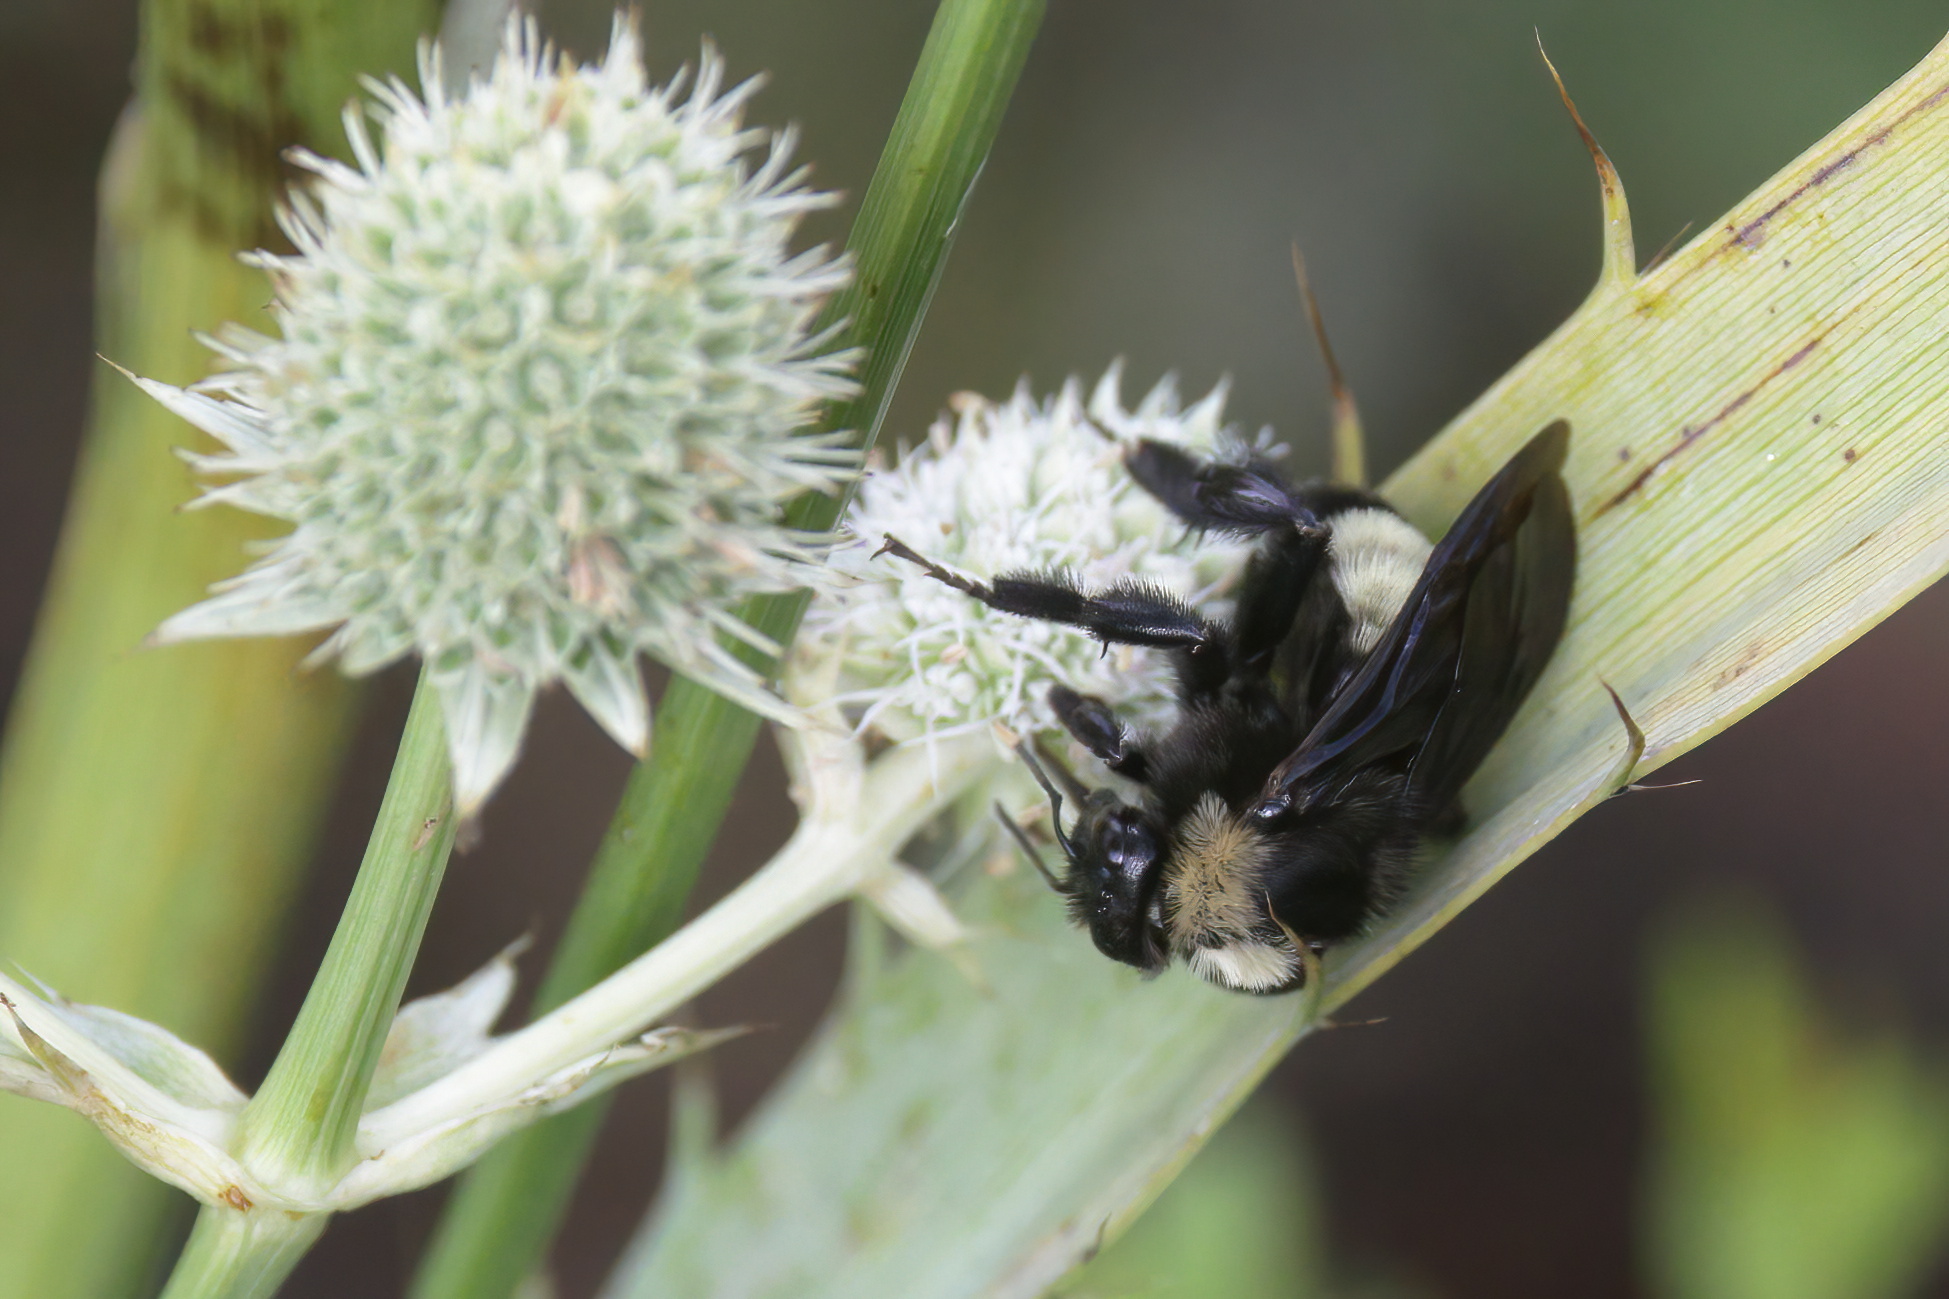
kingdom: Animalia
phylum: Arthropoda
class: Insecta
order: Hymenoptera
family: Apidae
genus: Bombus
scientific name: Bombus pensylvanicus
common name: Bumble bee
